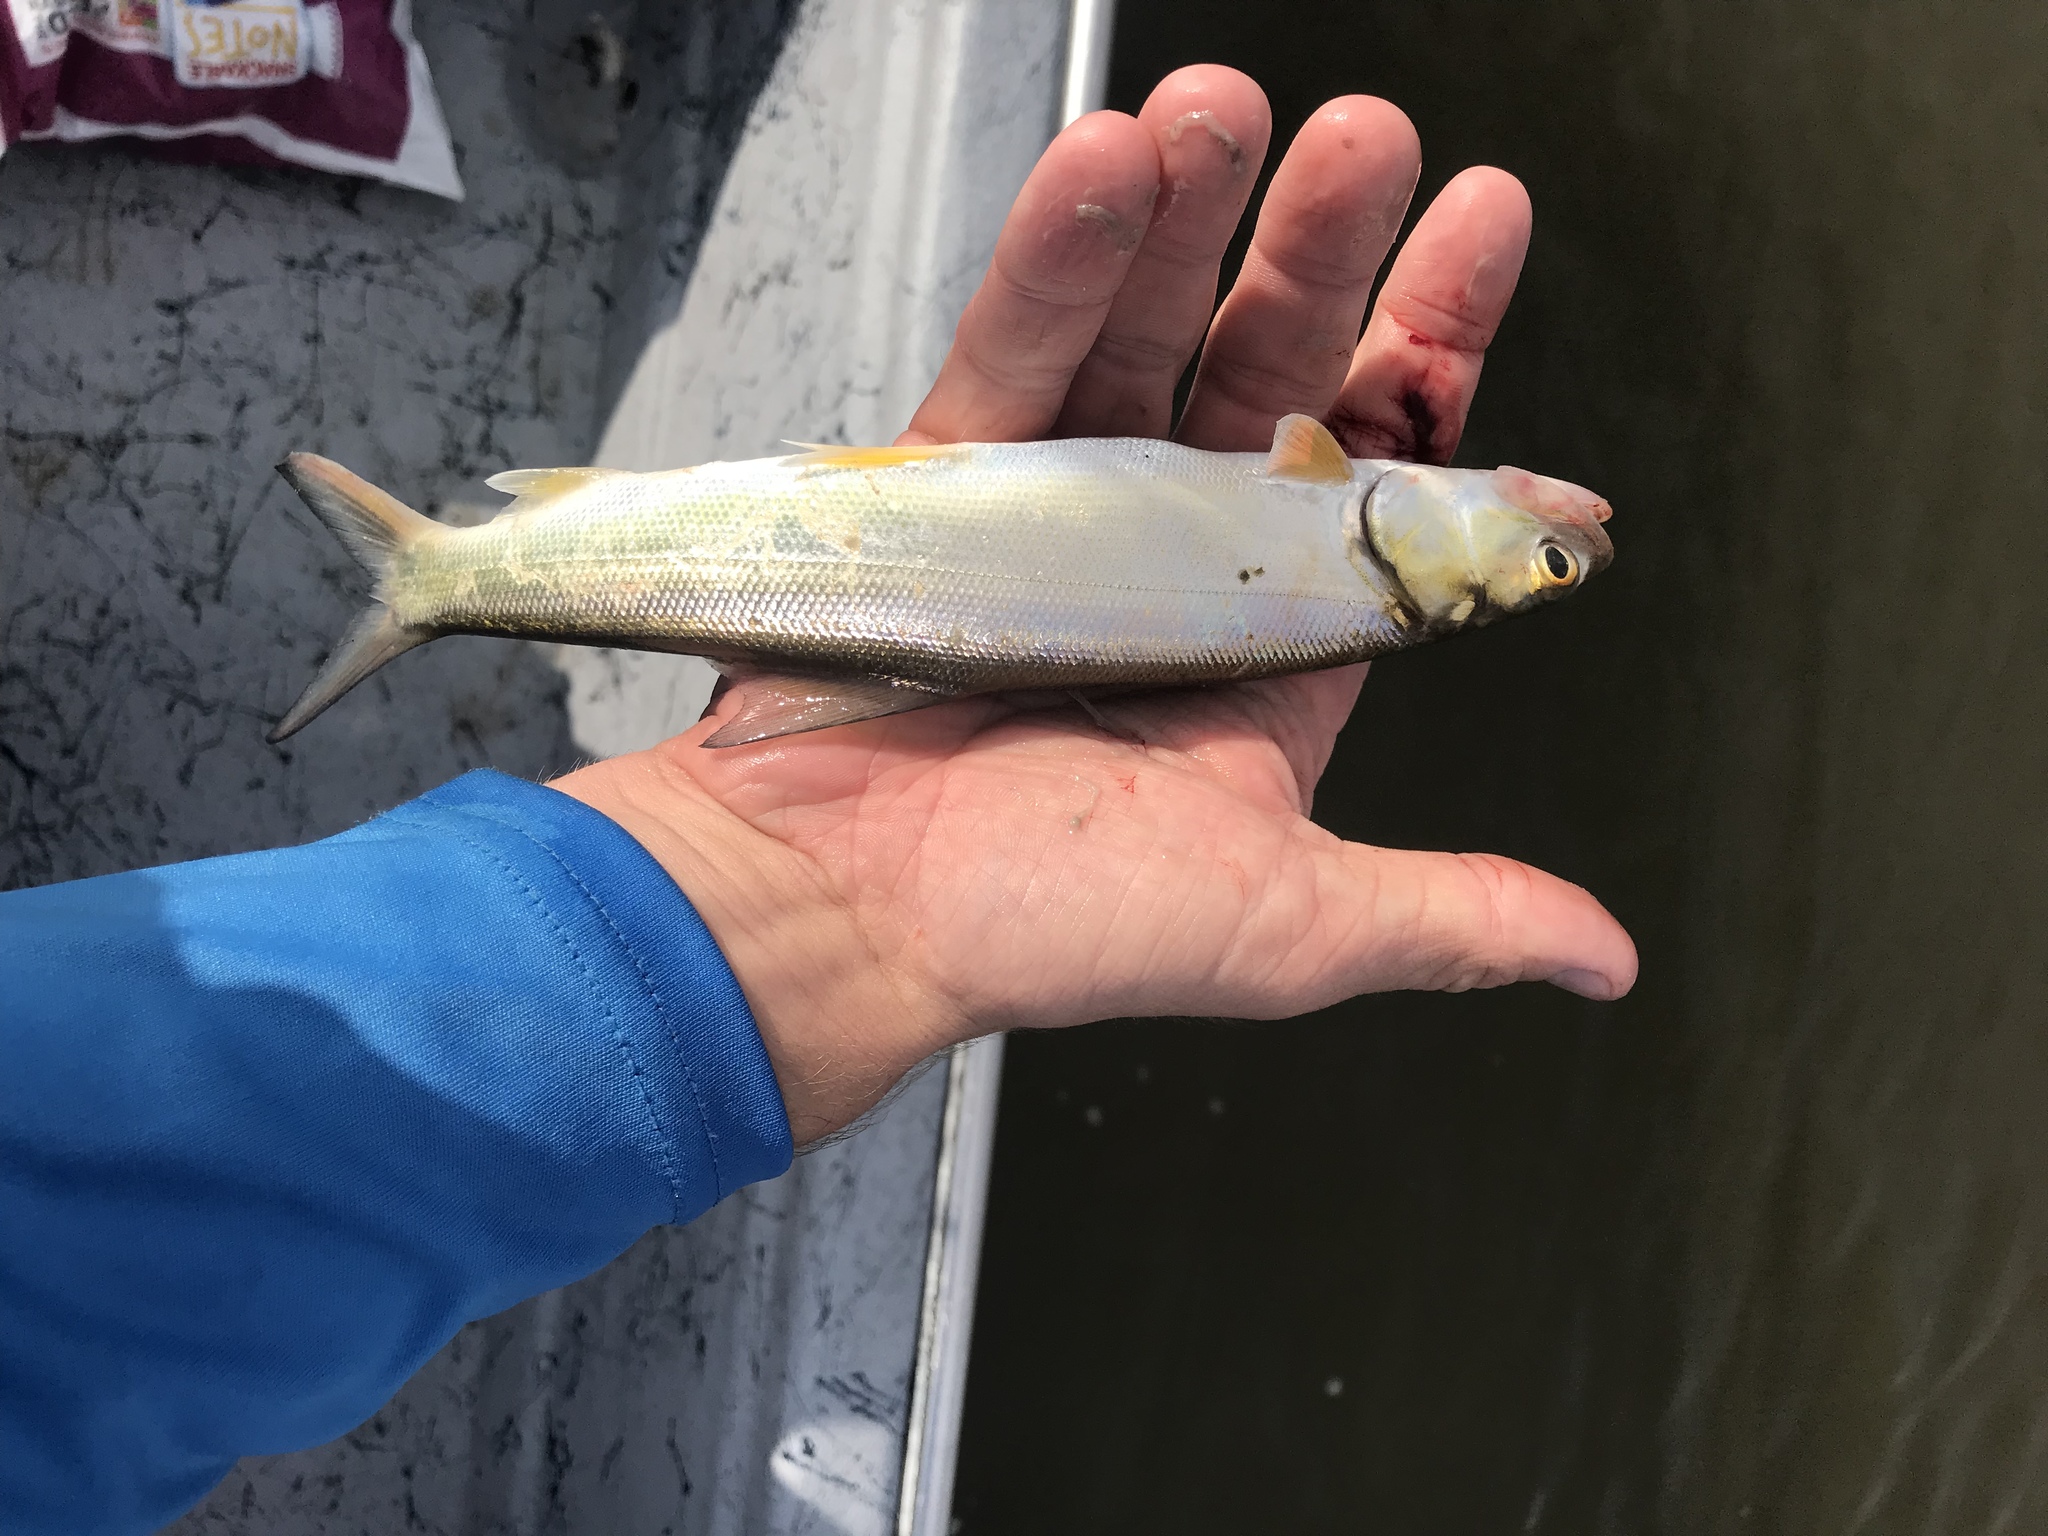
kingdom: Animalia
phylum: Chordata
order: Elopiformes
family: Elopidae
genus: Elops
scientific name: Elops saurus
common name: Ladyfish
